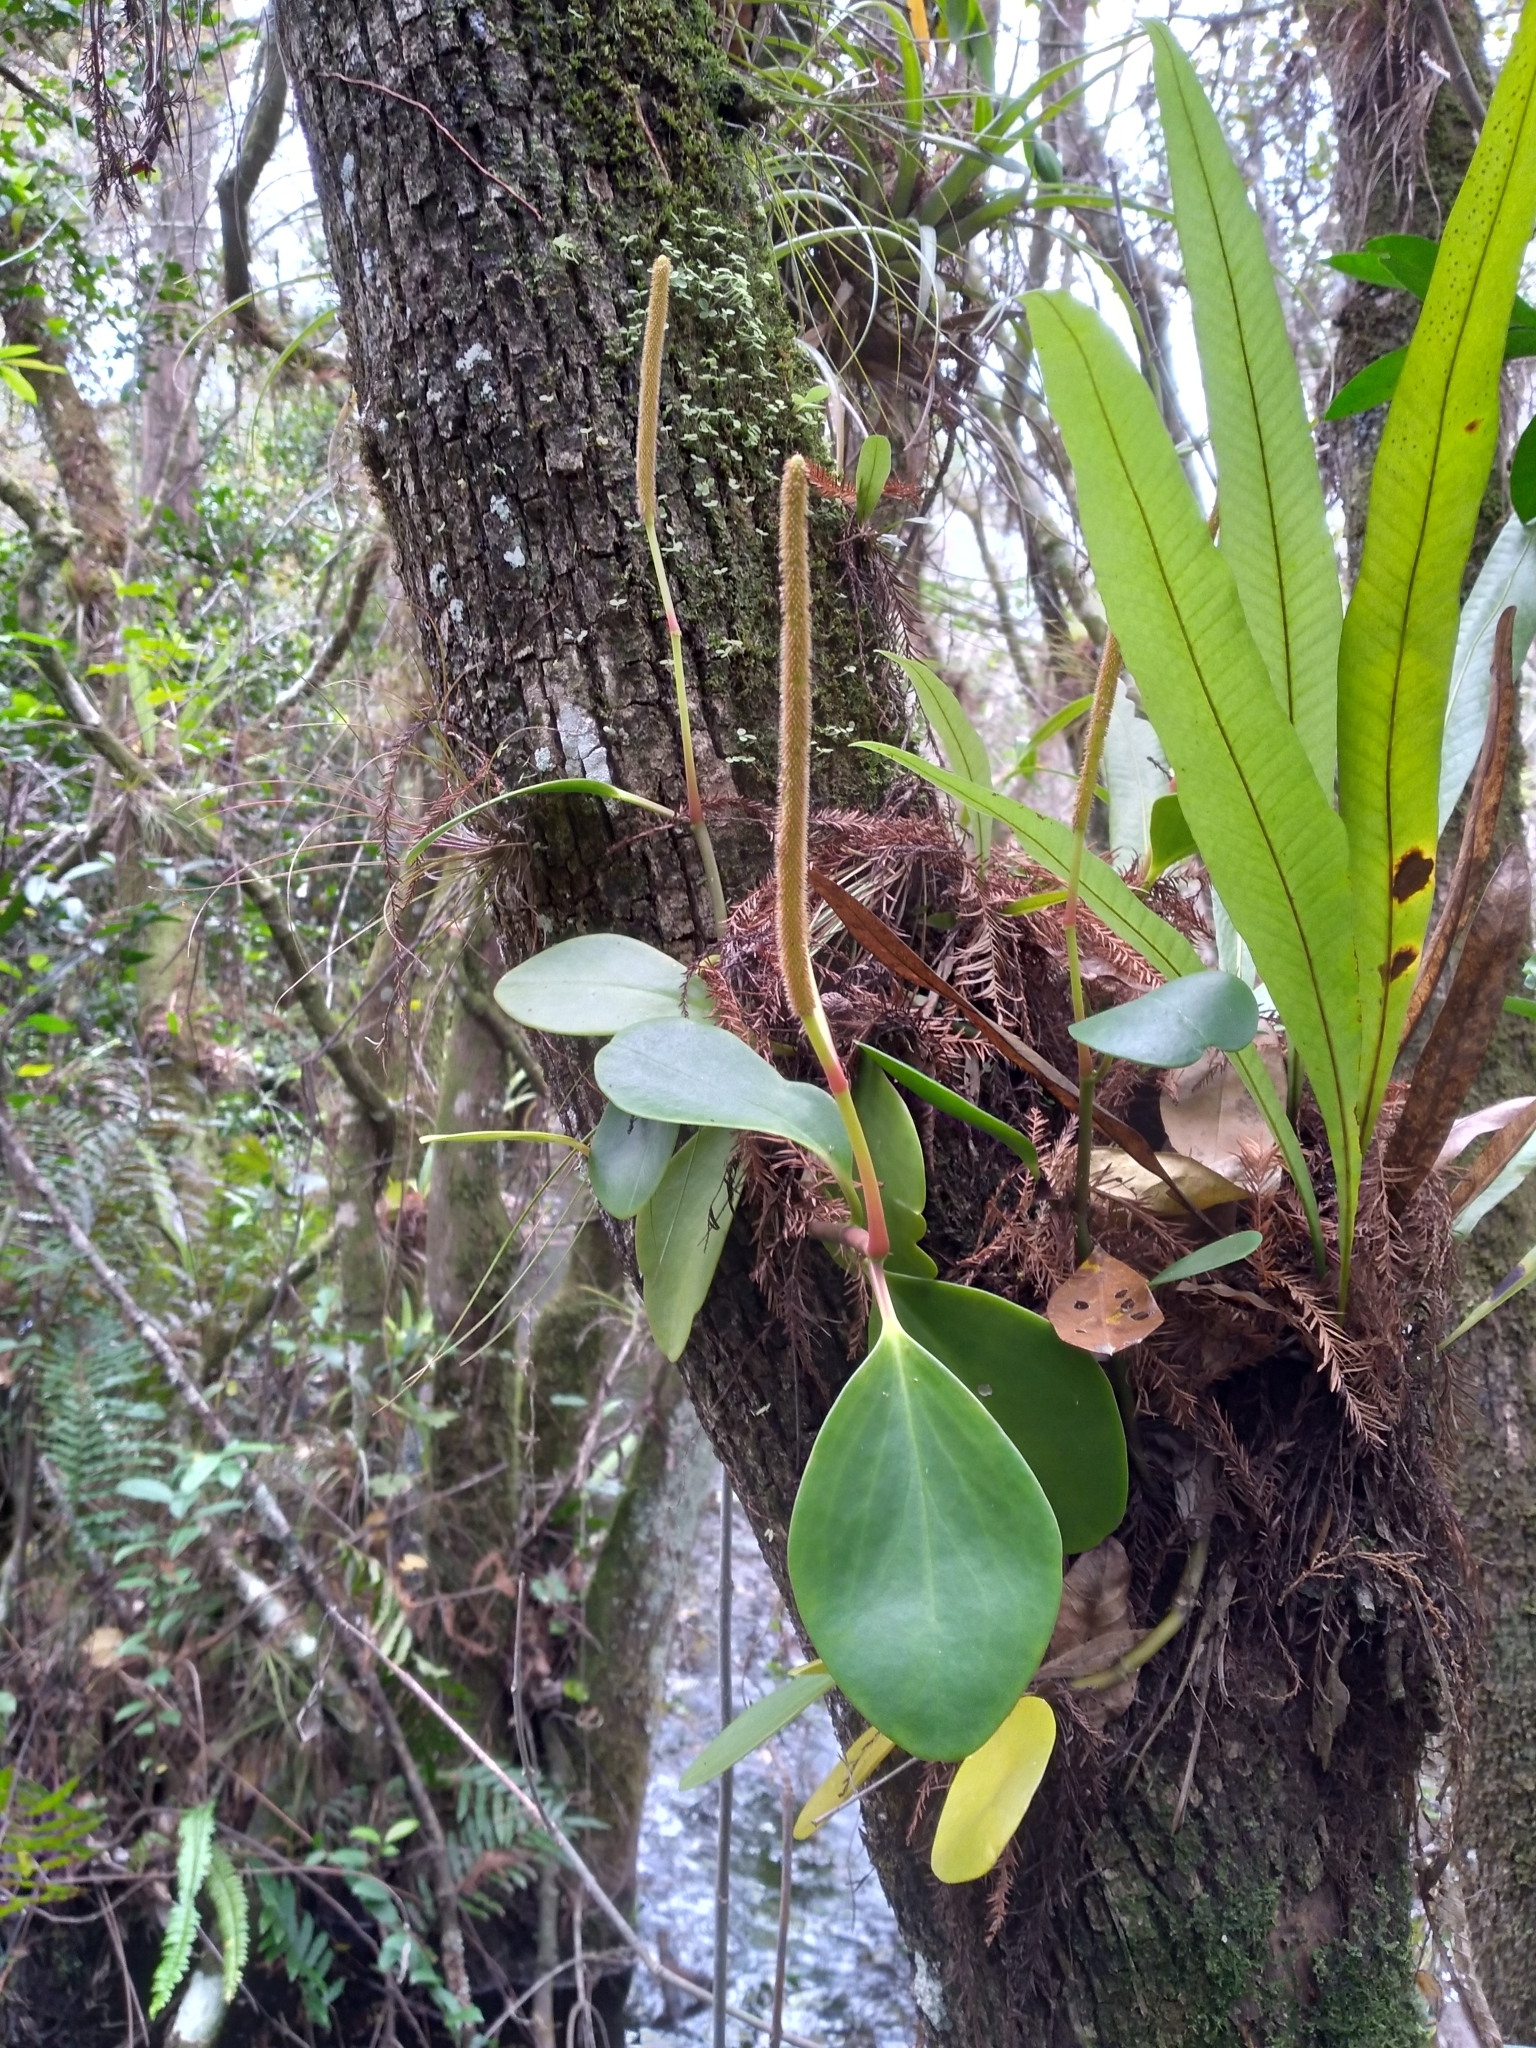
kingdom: Plantae
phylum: Tracheophyta
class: Magnoliopsida
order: Piperales
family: Piperaceae
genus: Peperomia
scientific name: Peperomia obtusifolia
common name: Baby rubberplant
